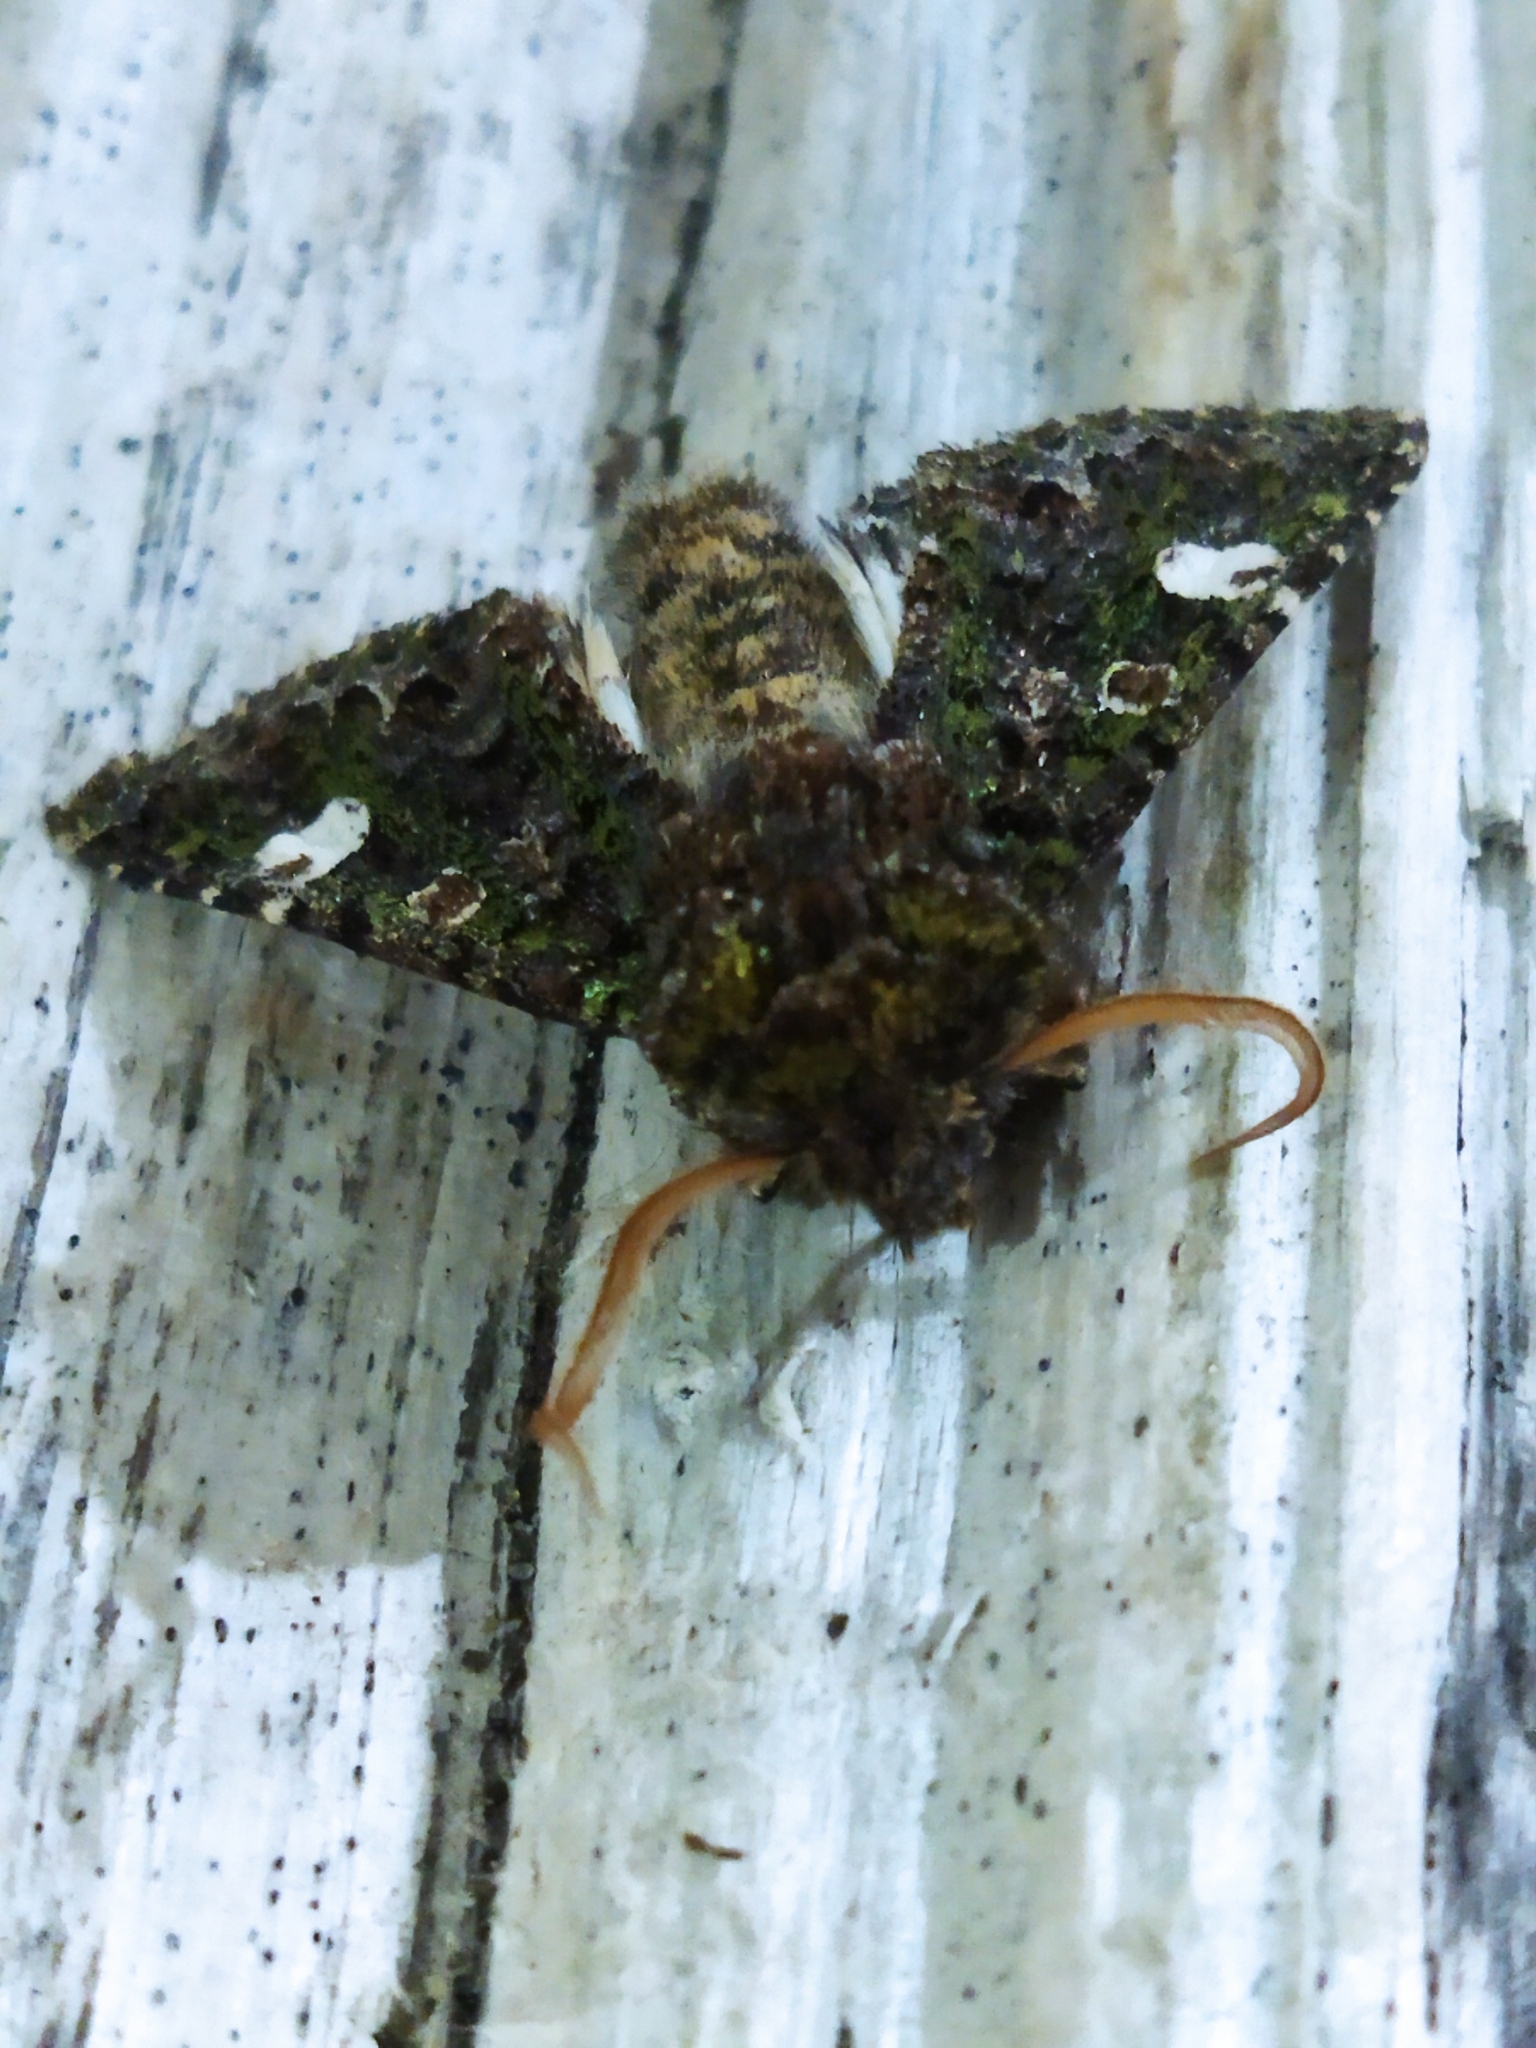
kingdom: Animalia
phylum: Arthropoda
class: Insecta
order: Lepidoptera
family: Noctuidae
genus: Valeria
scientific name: Valeria oleagina
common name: Green-brindled dot
